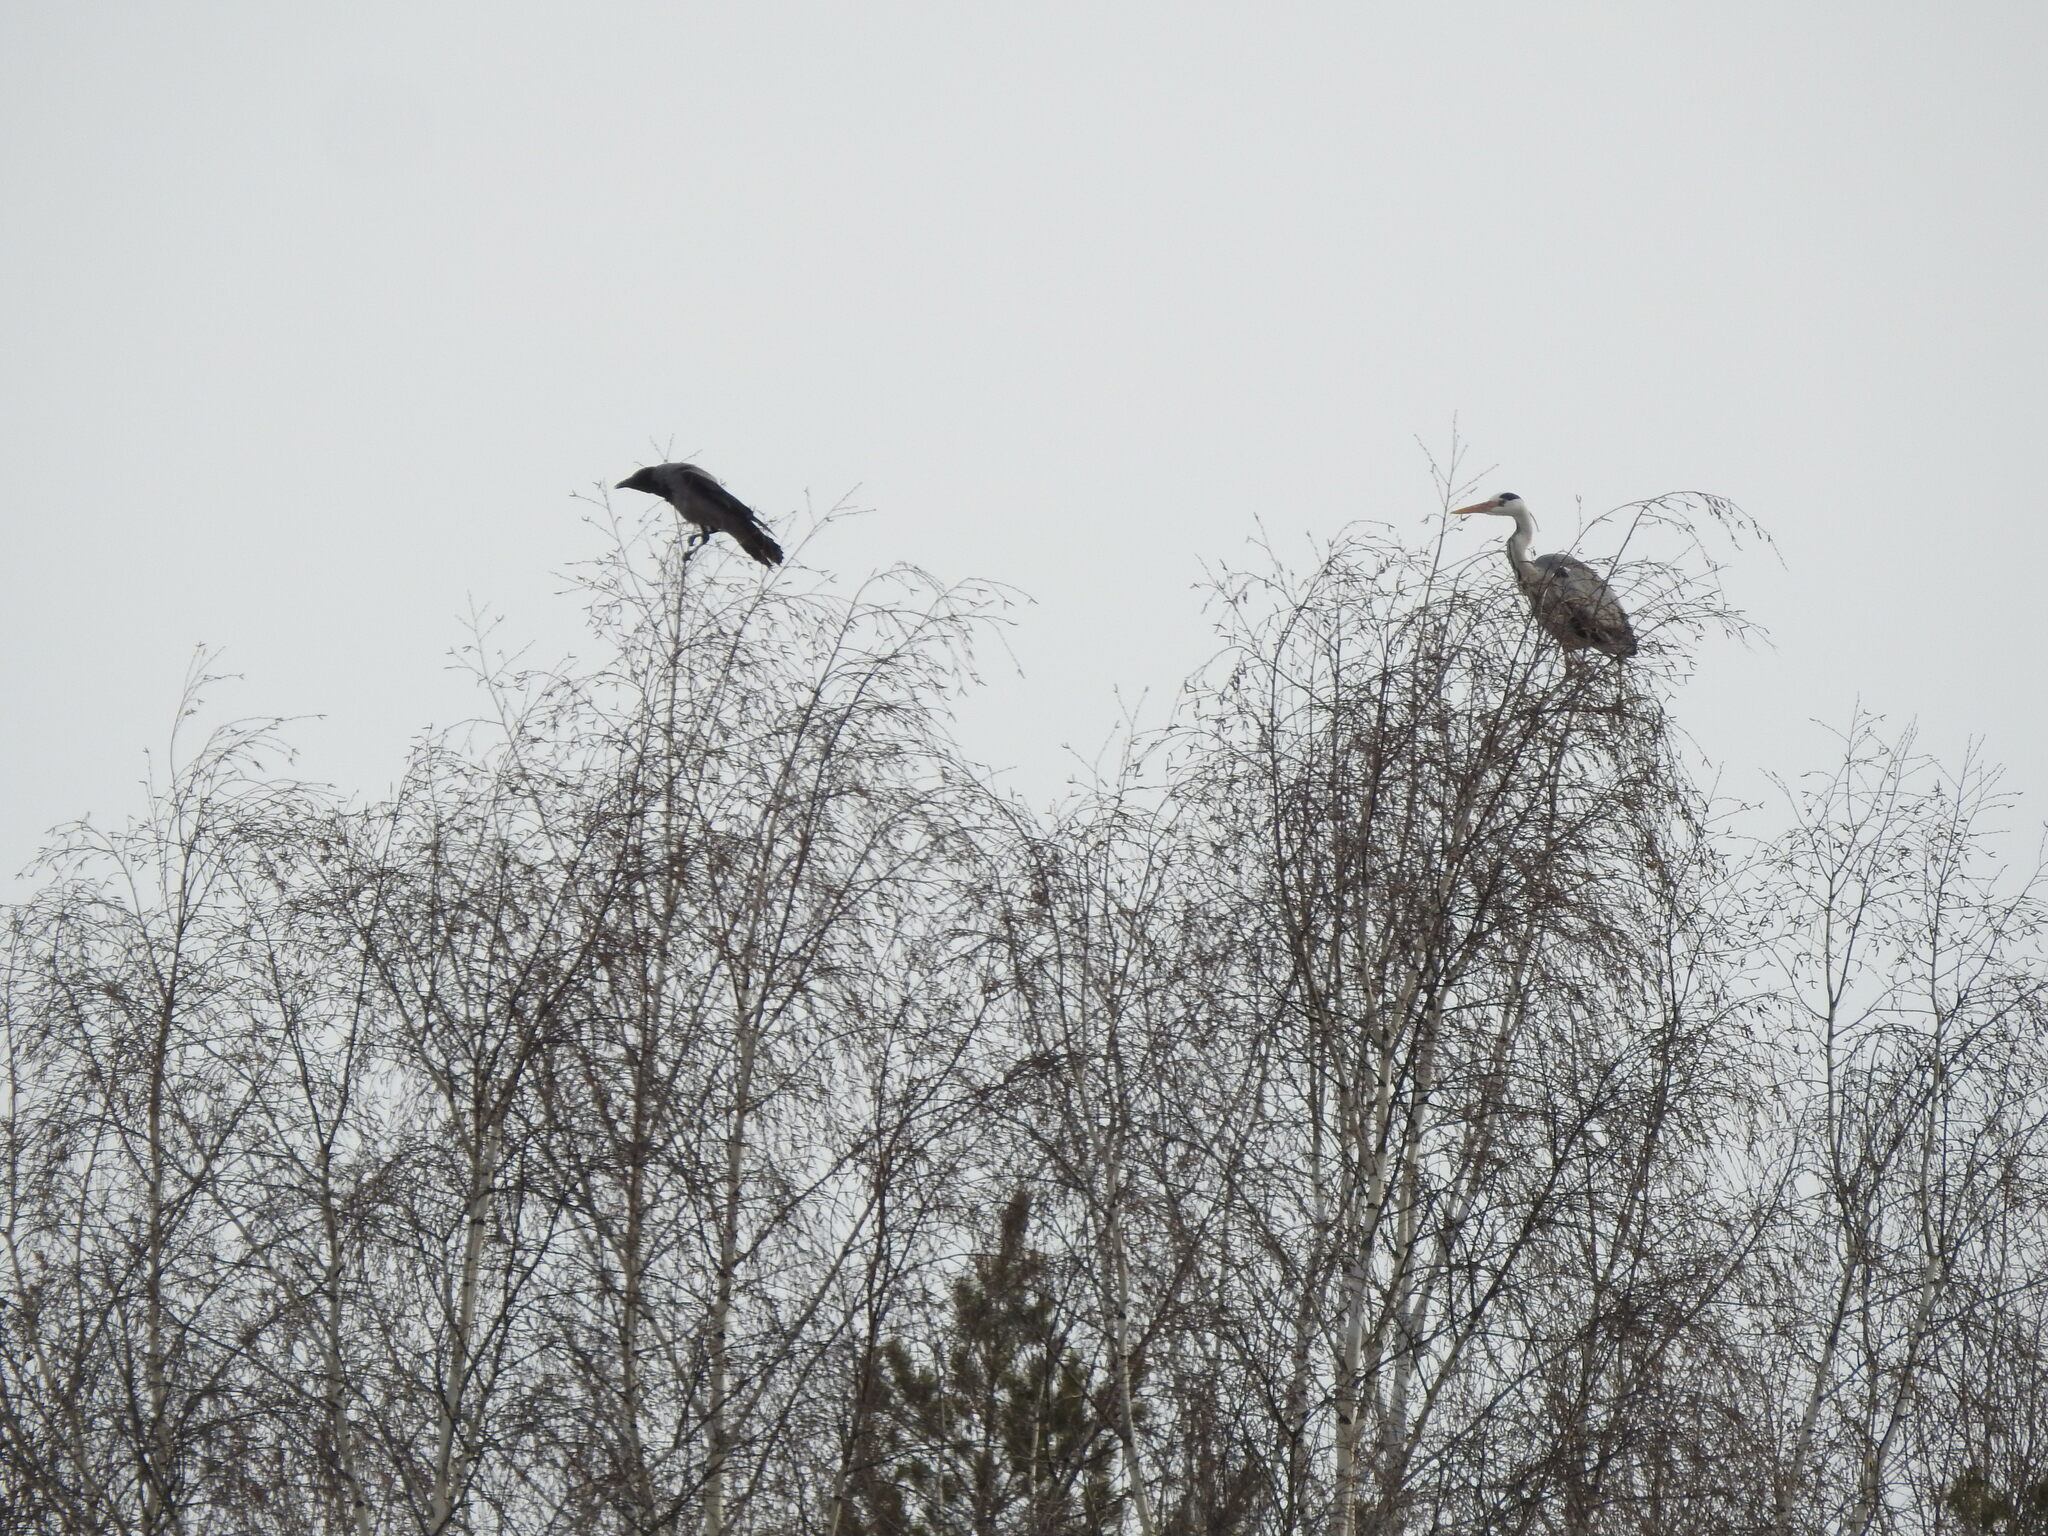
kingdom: Animalia
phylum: Chordata
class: Aves
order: Pelecaniformes
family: Ardeidae
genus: Ardea
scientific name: Ardea cinerea
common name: Grey heron
